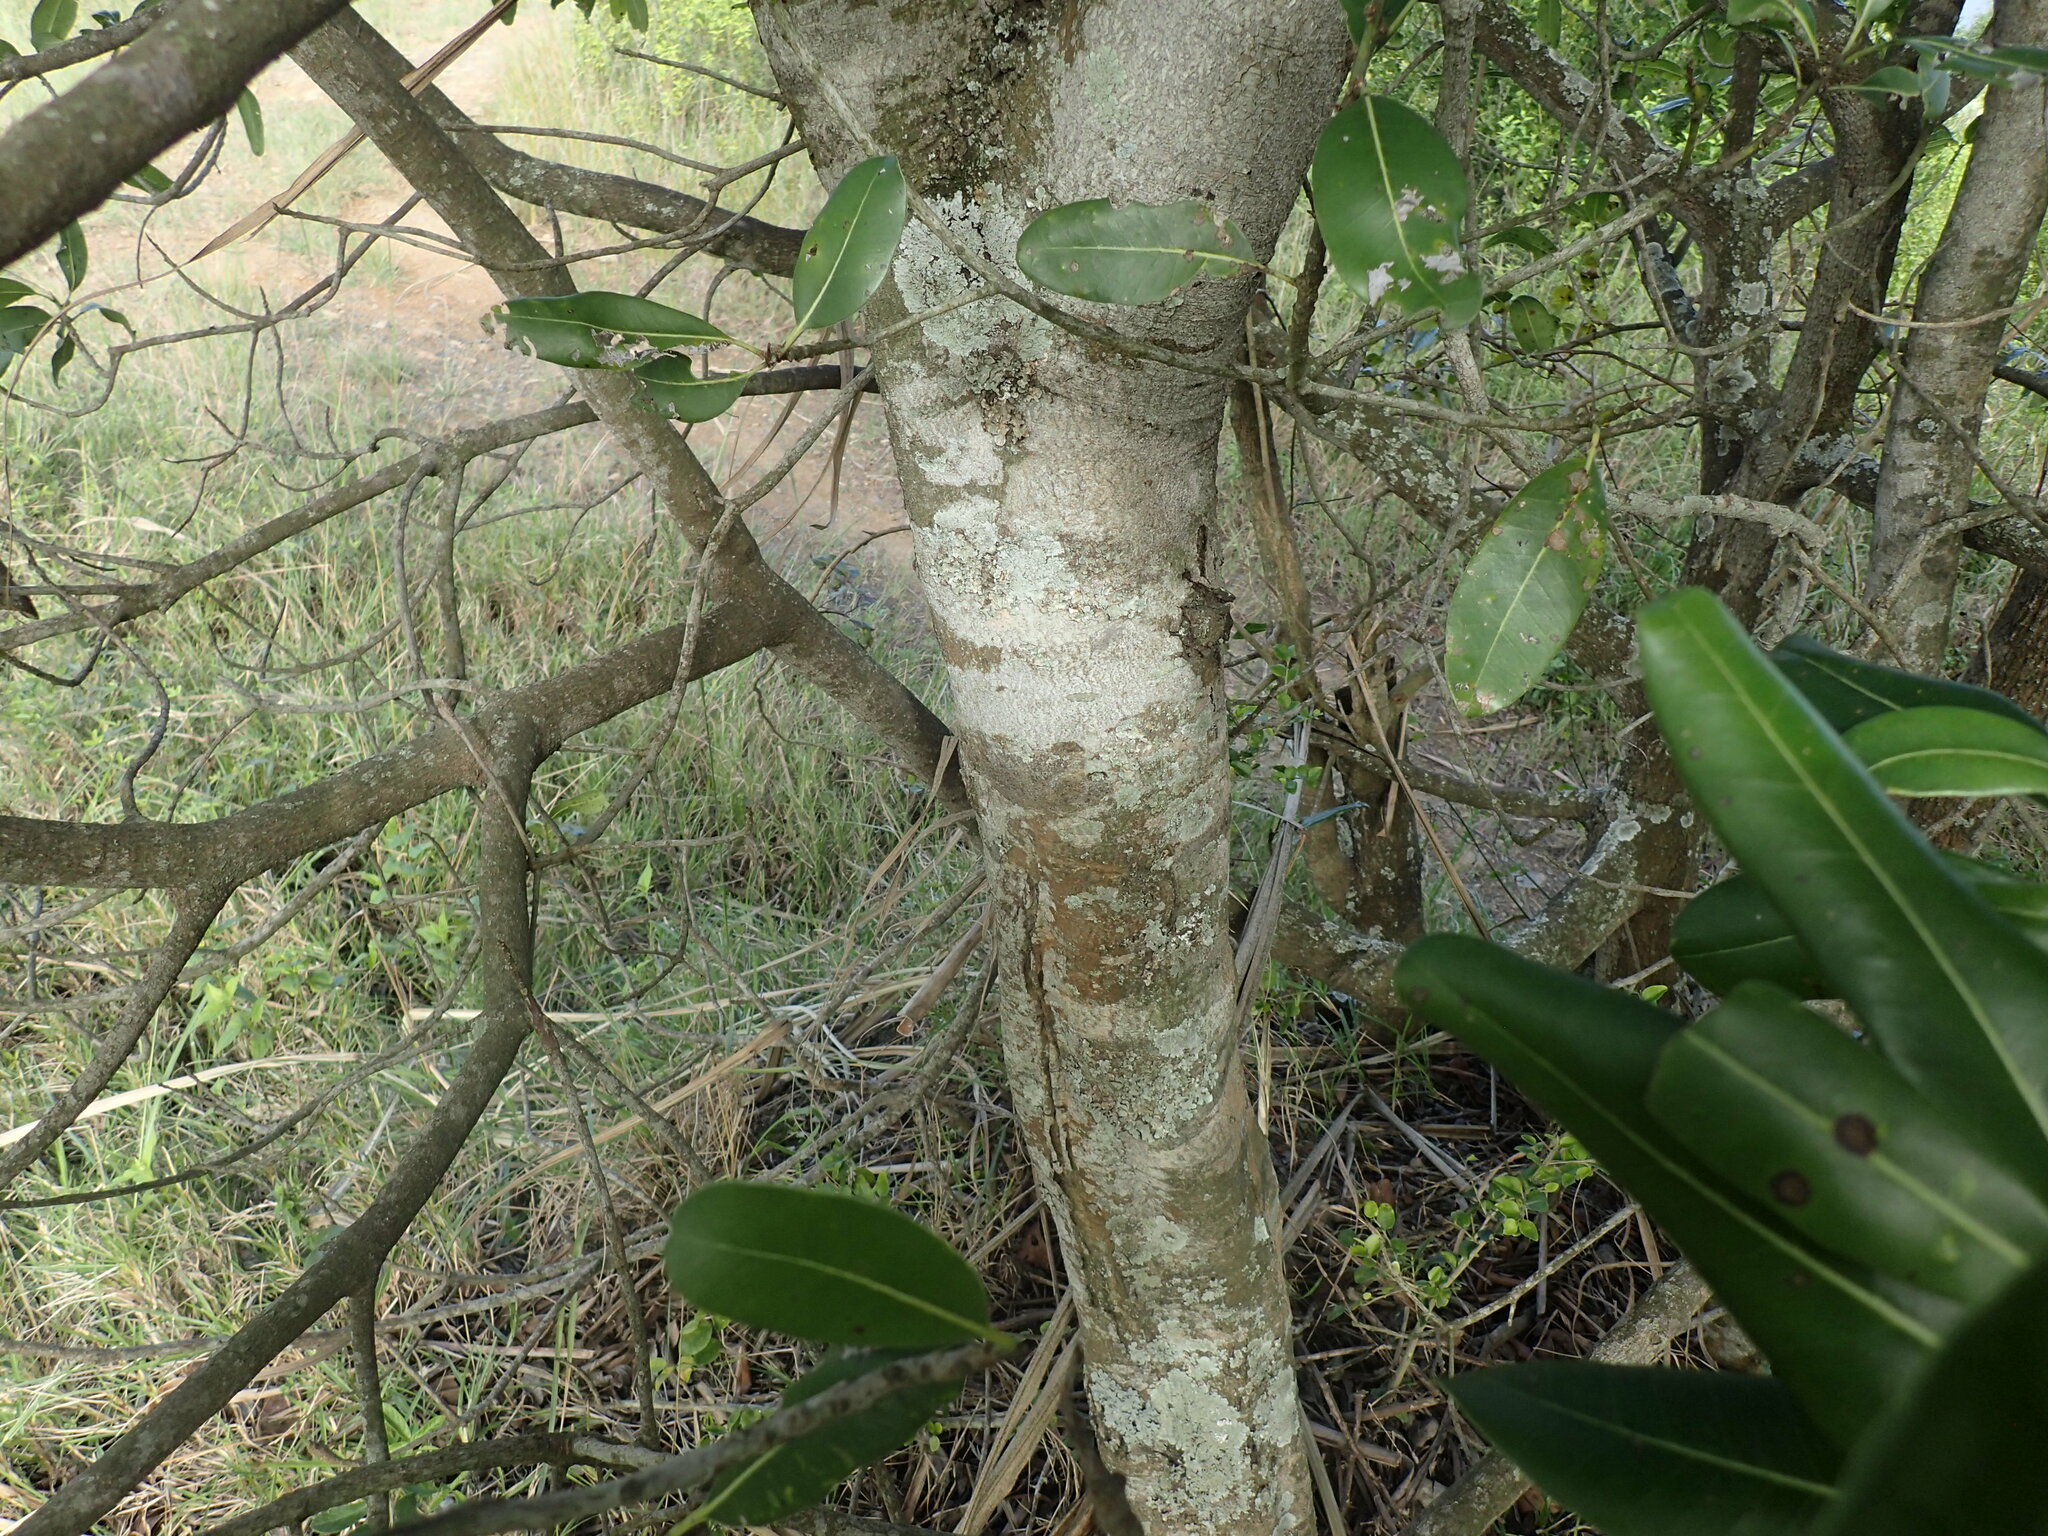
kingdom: Plantae
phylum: Tracheophyta
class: Magnoliopsida
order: Ericales
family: Ebenaceae
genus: Euclea
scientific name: Euclea natalensis
